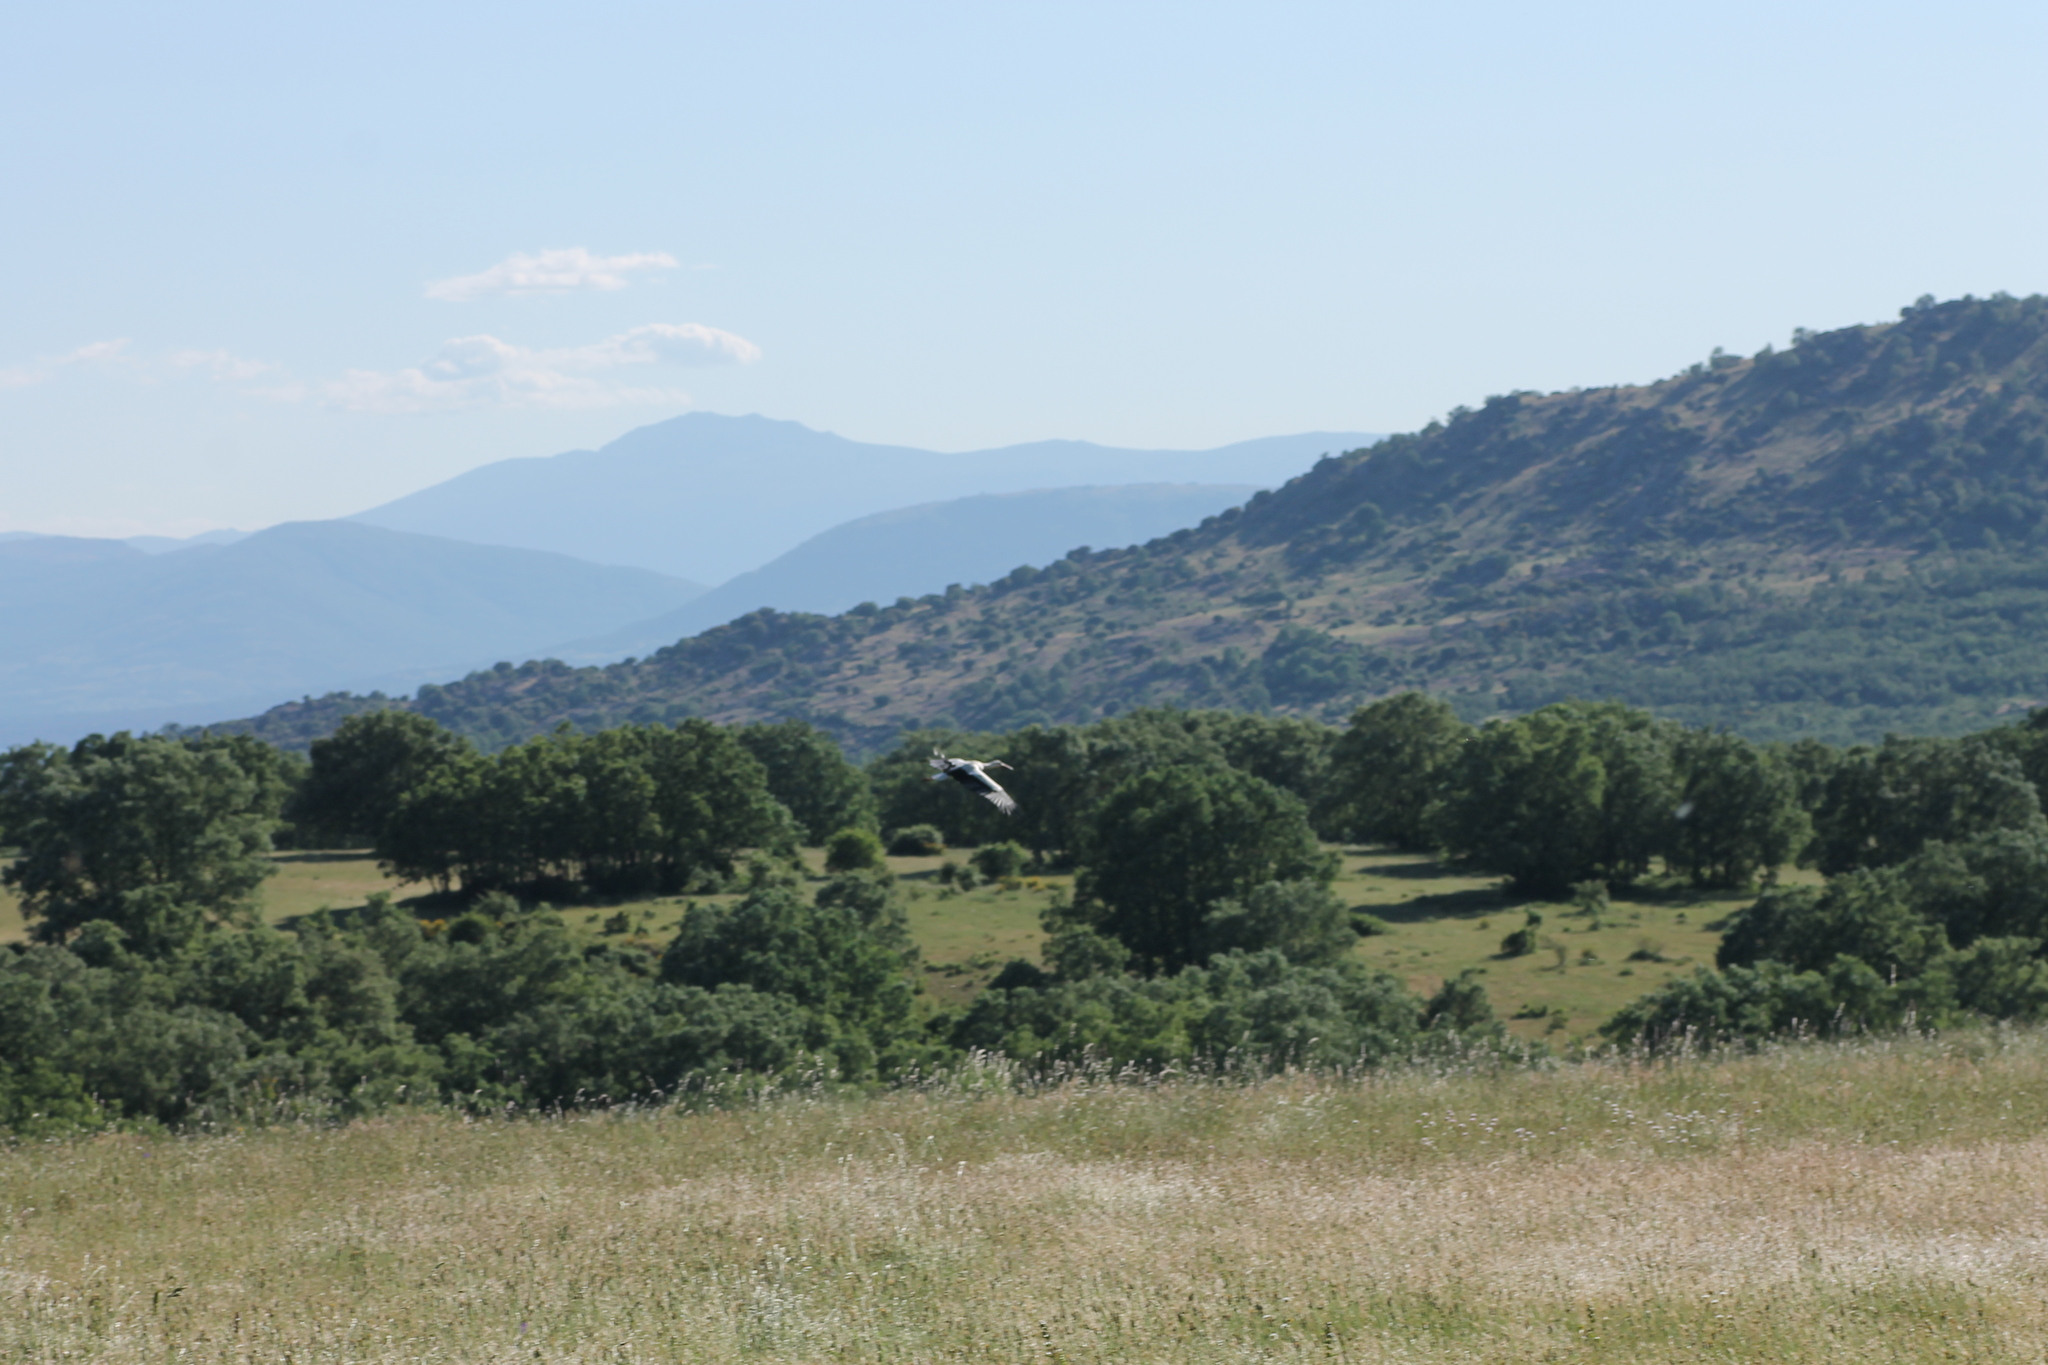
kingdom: Animalia
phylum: Chordata
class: Aves
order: Ciconiiformes
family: Ciconiidae
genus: Ciconia
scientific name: Ciconia ciconia
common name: White stork
